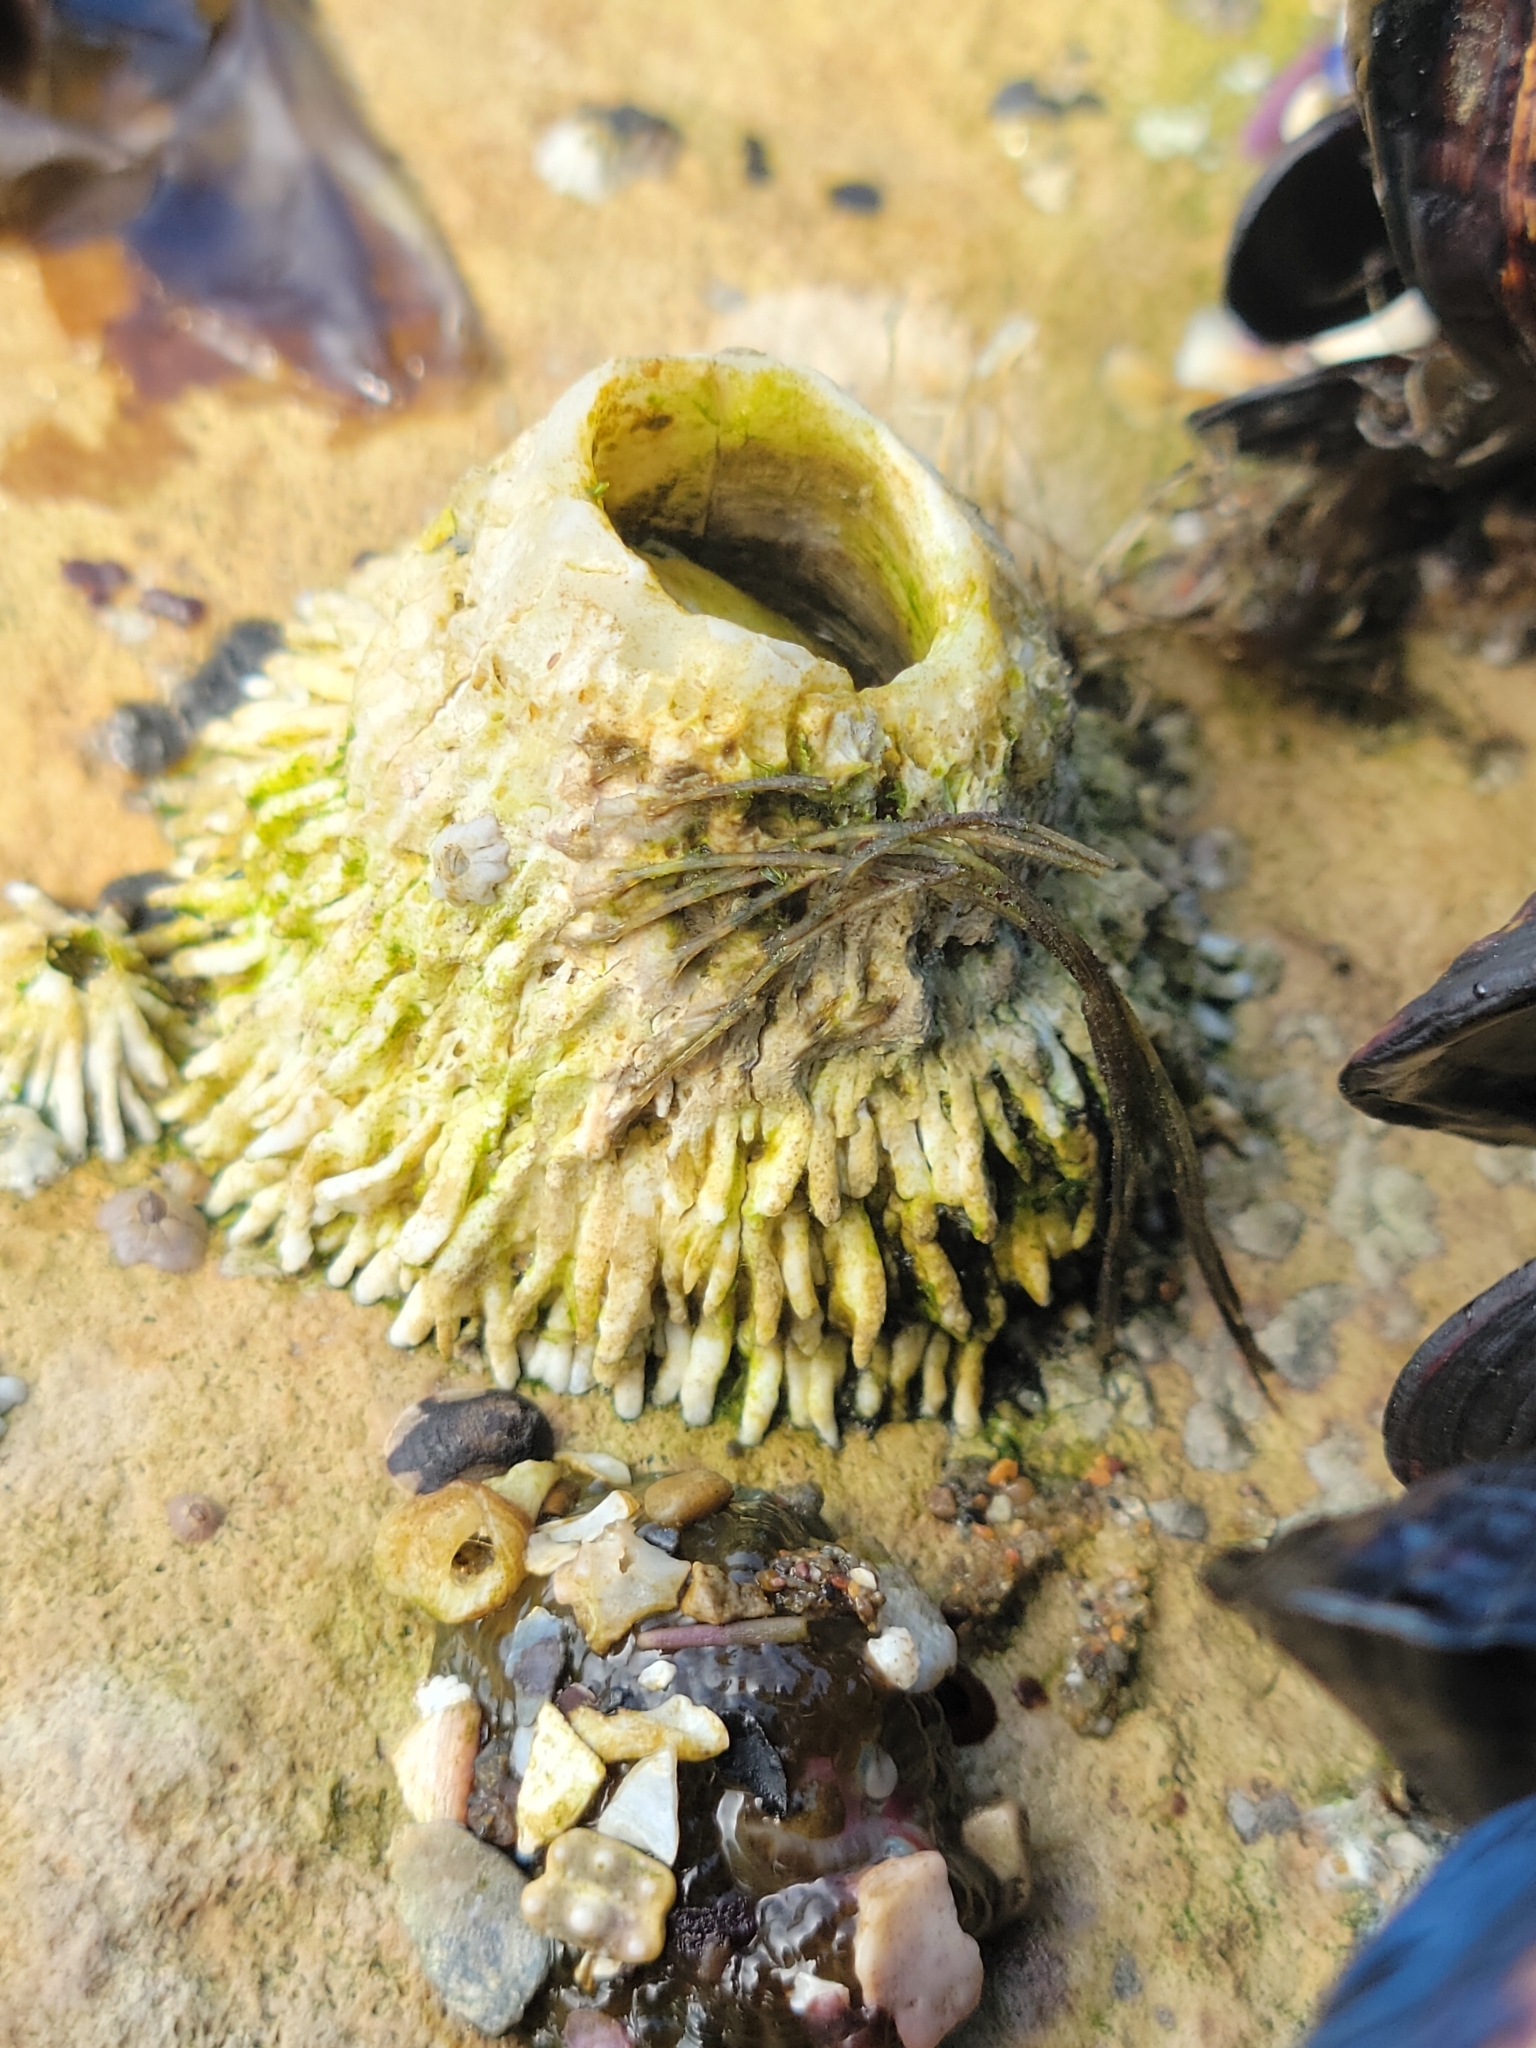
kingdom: Animalia
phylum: Arthropoda
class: Maxillopoda
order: Sessilia
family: Archaeobalanidae
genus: Semibalanus
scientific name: Semibalanus cariosus
